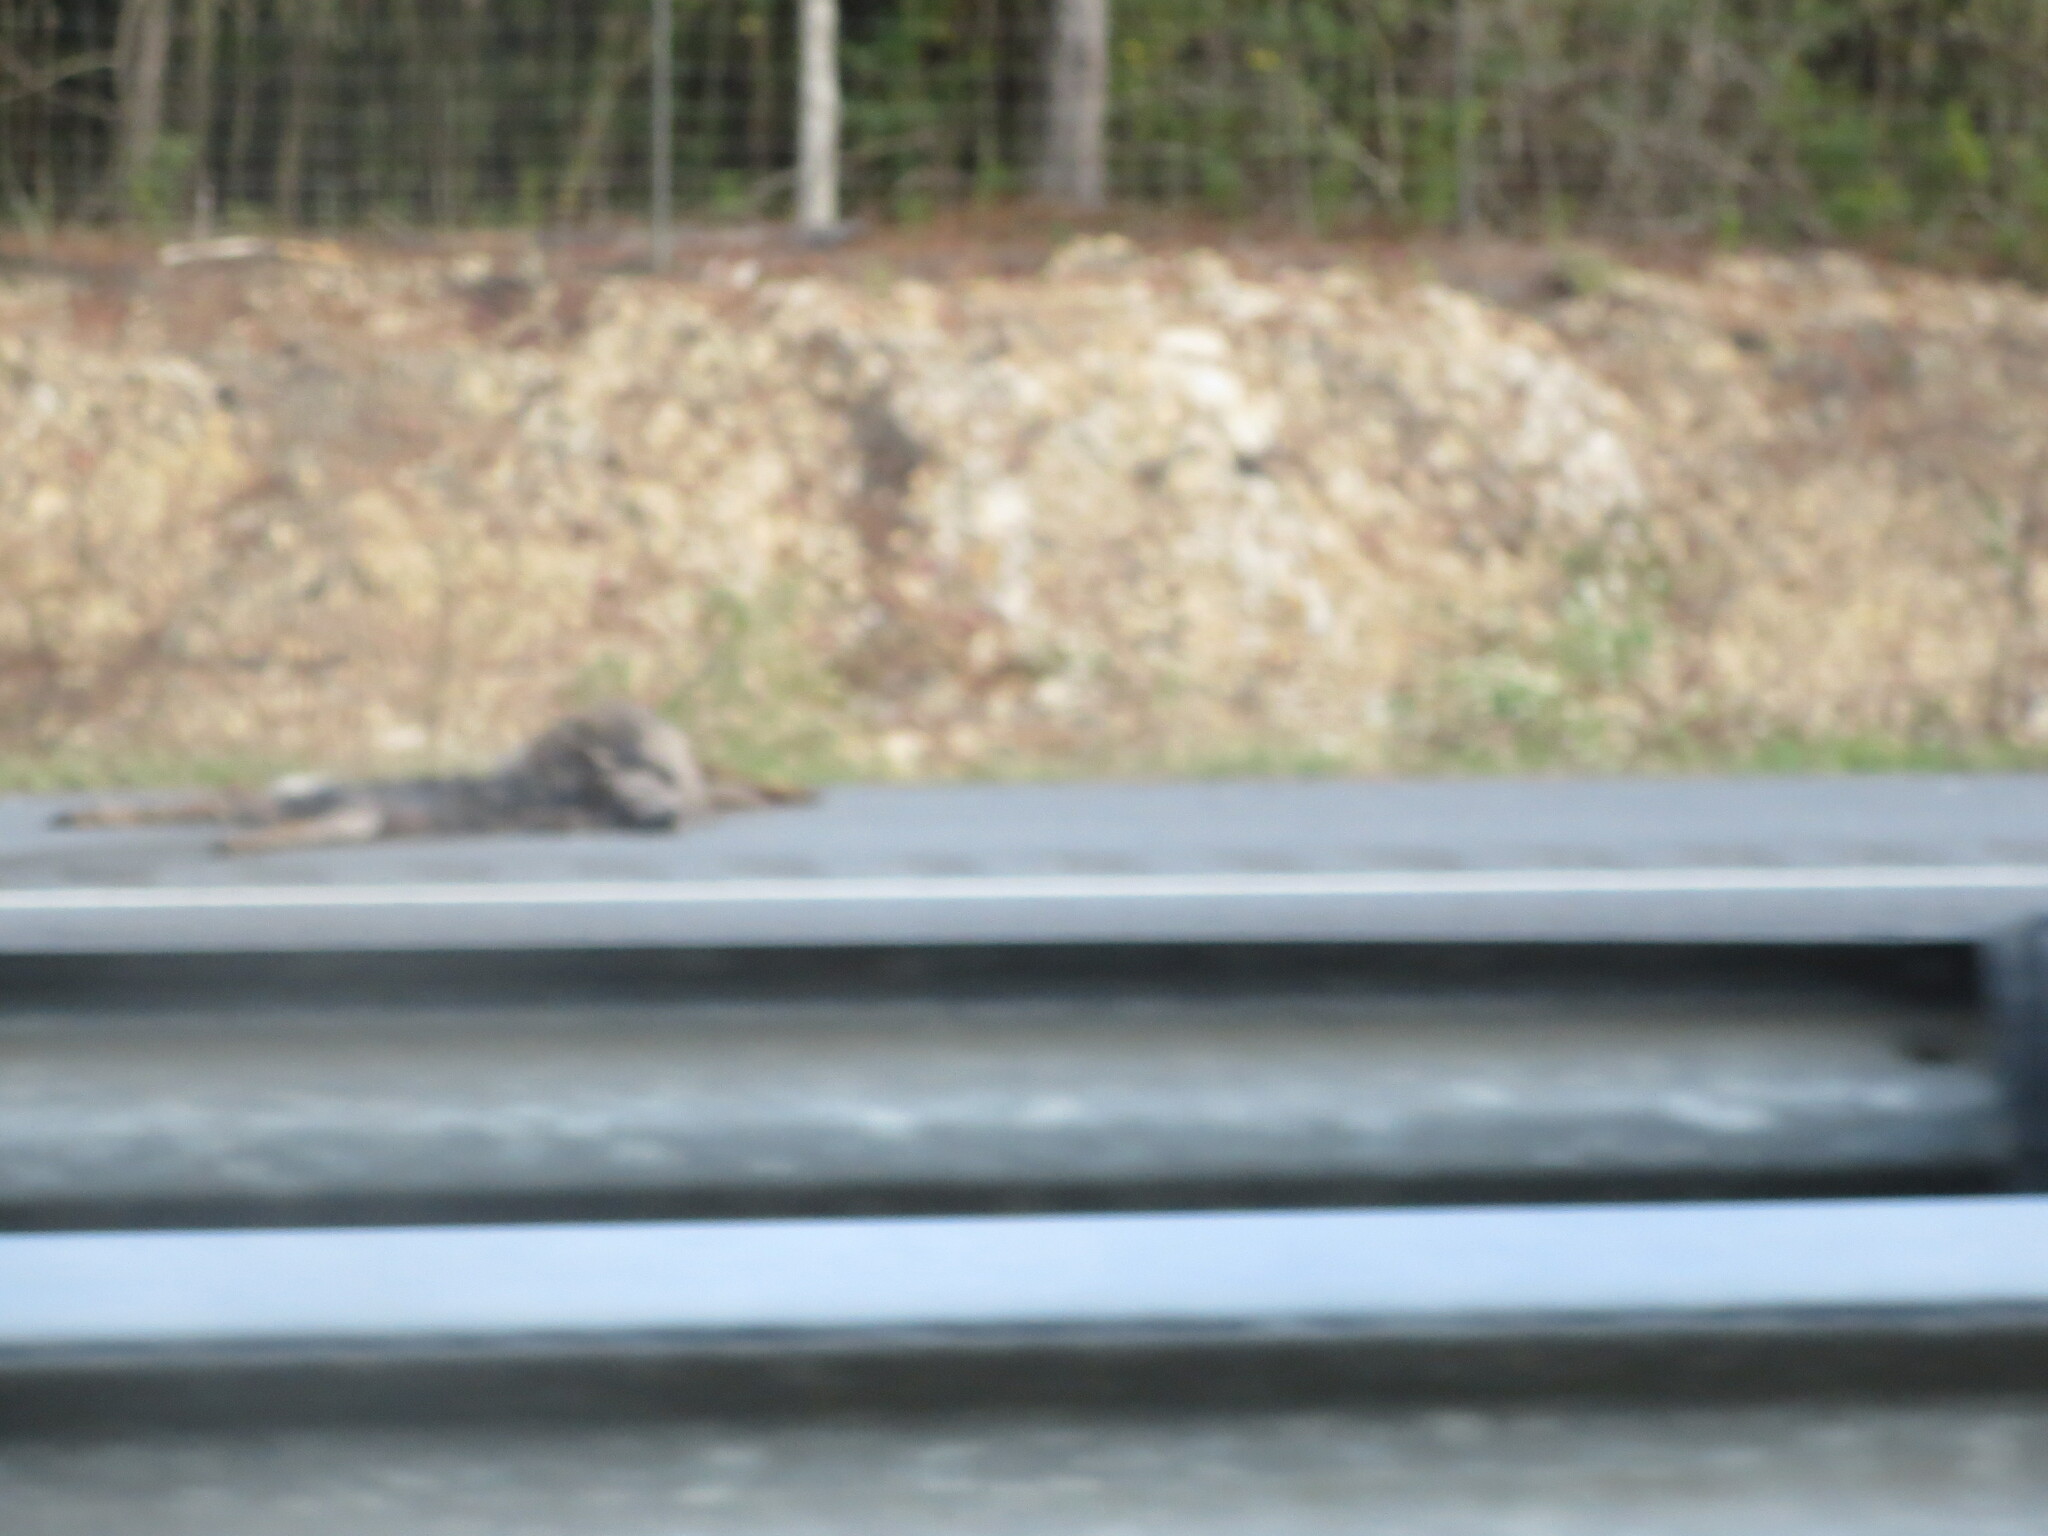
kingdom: Animalia
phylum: Chordata
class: Mammalia
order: Artiodactyla
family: Cervidae
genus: Odocoileus
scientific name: Odocoileus virginianus
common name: White-tailed deer
